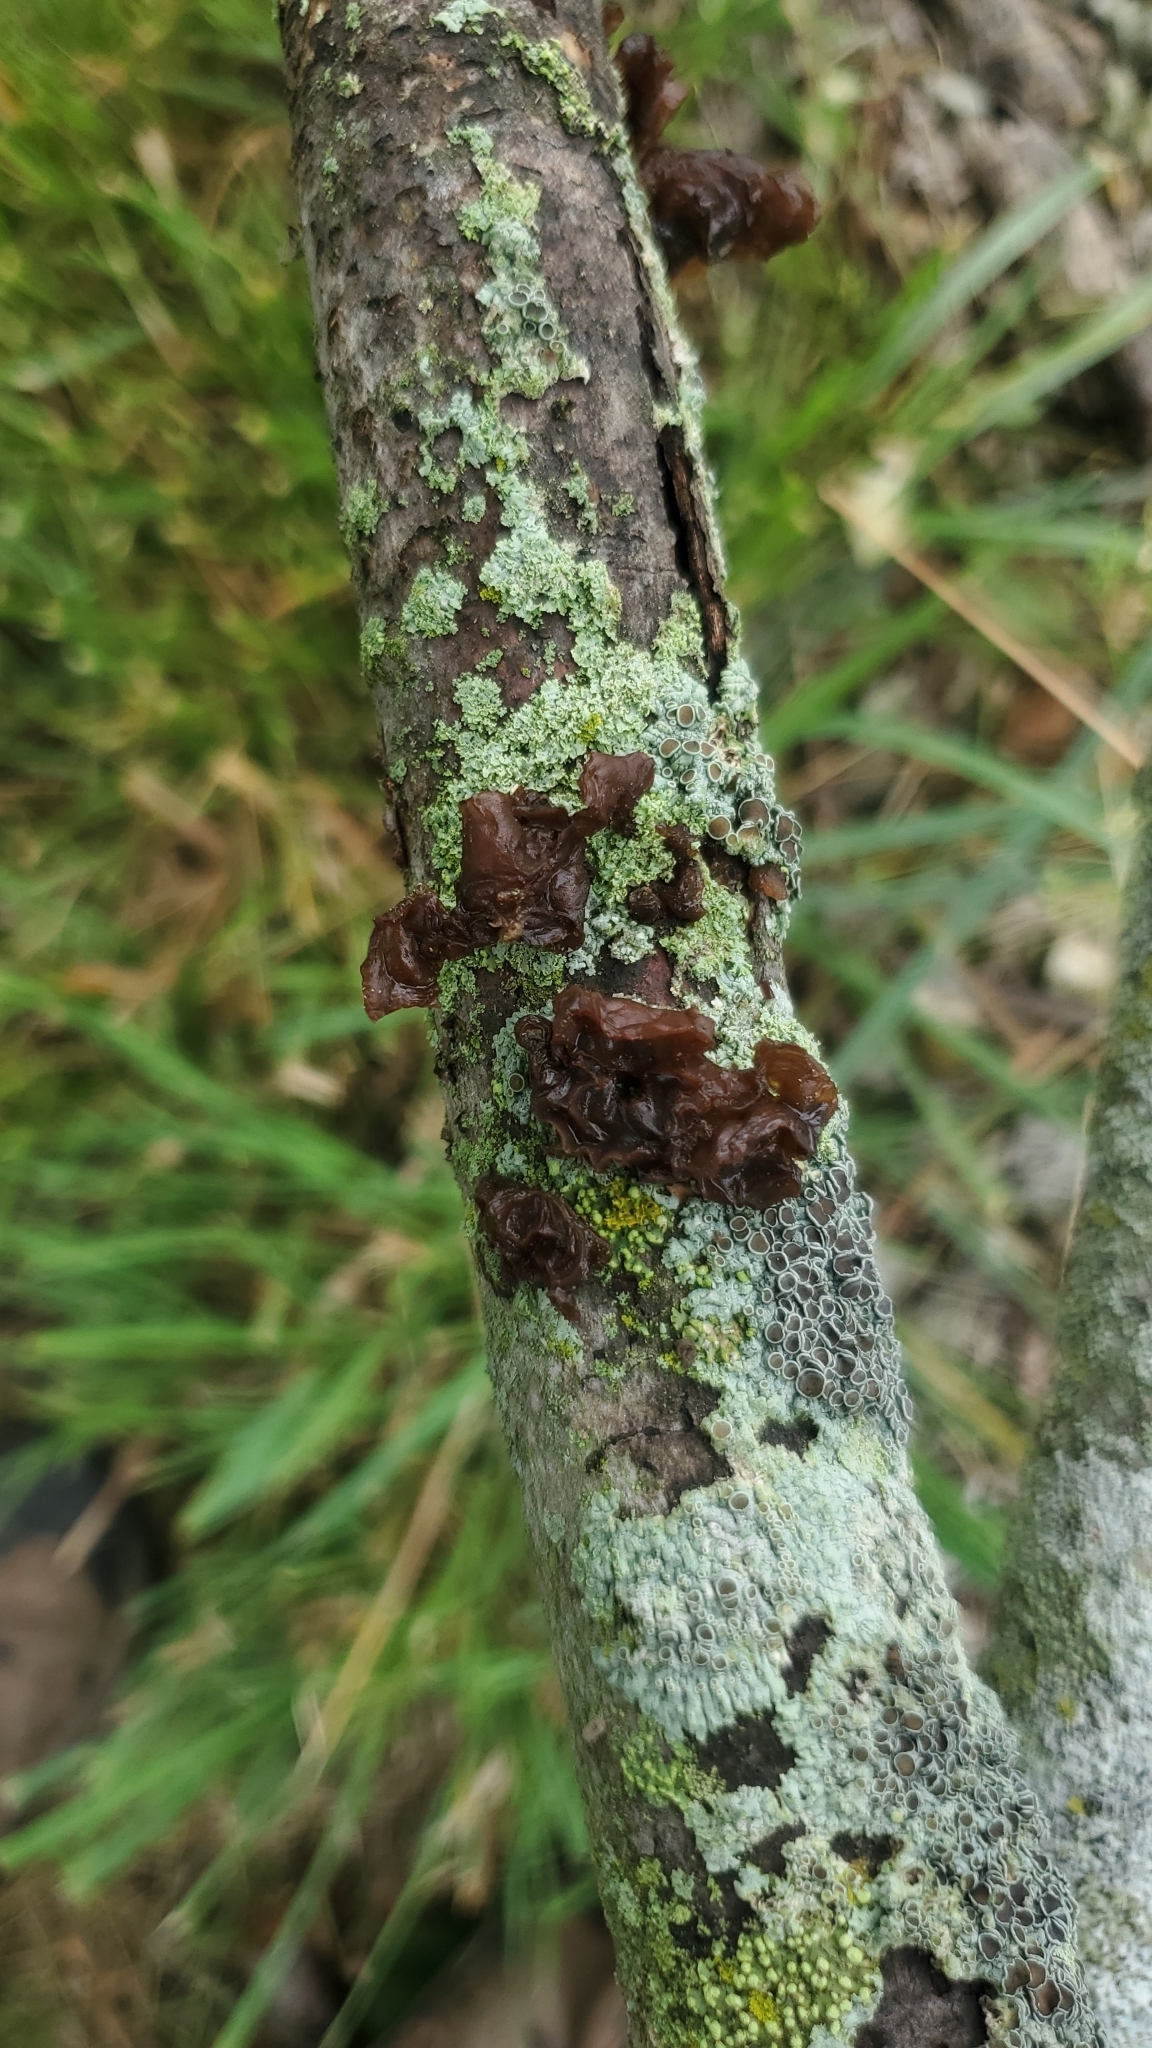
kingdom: Fungi
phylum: Basidiomycota
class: Agaricomycetes
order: Auriculariales
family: Auriculariaceae
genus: Exidia
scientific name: Exidia
